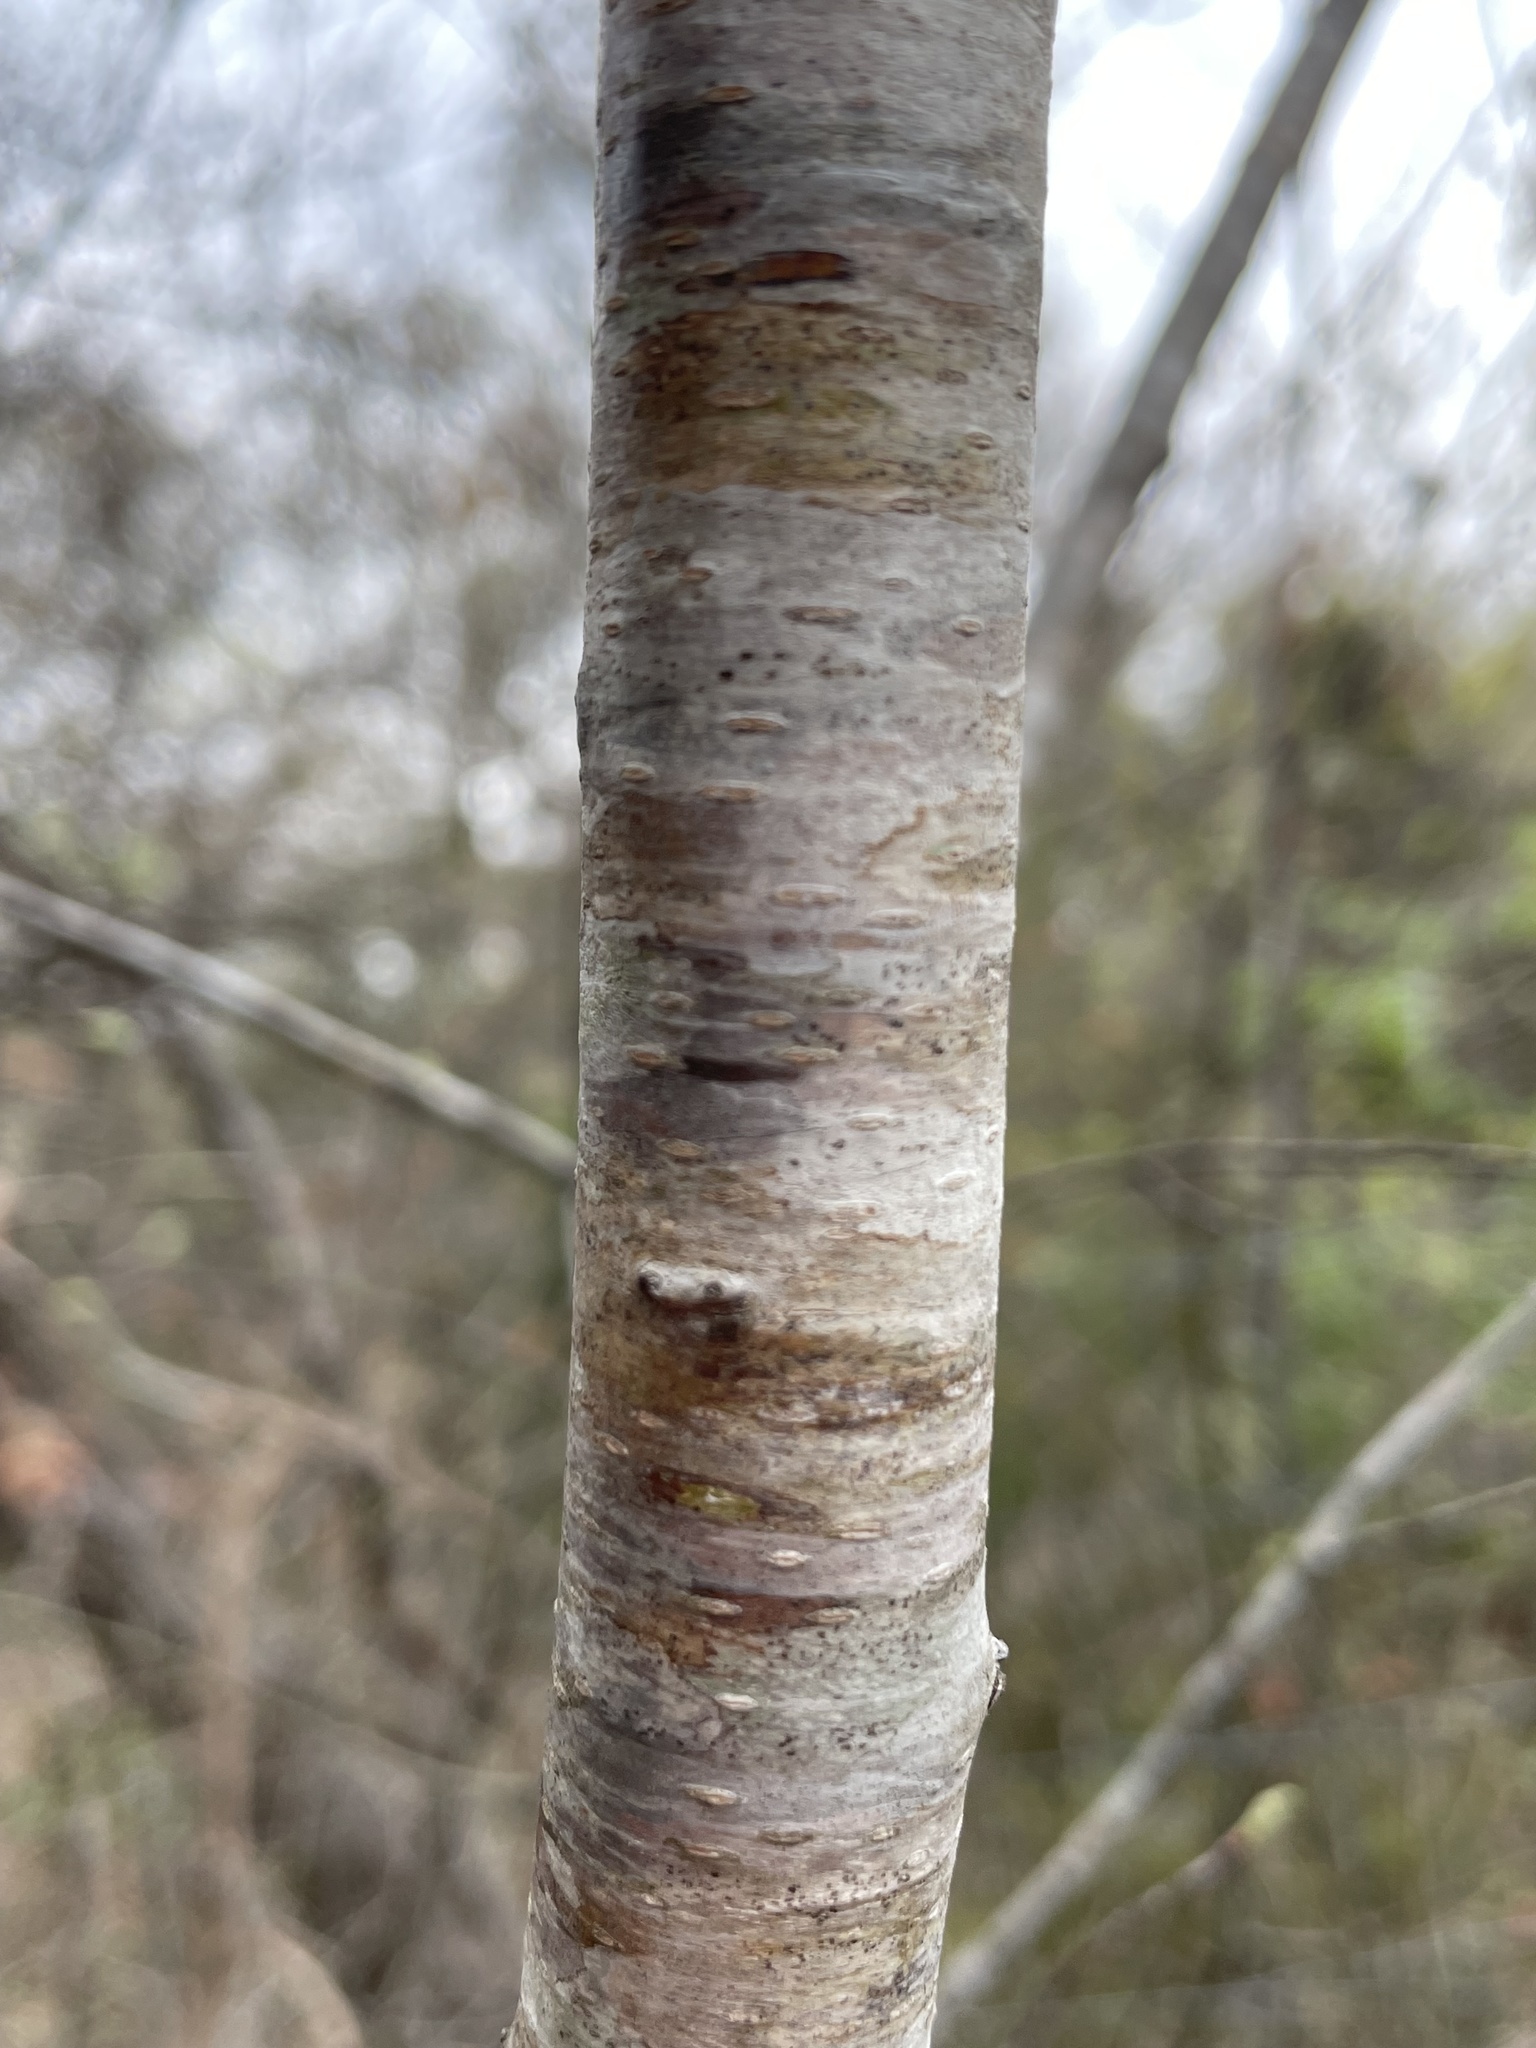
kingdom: Plantae
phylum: Tracheophyta
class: Magnoliopsida
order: Rosales
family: Rosaceae
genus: Prunus
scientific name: Prunus serotina
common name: Black cherry
